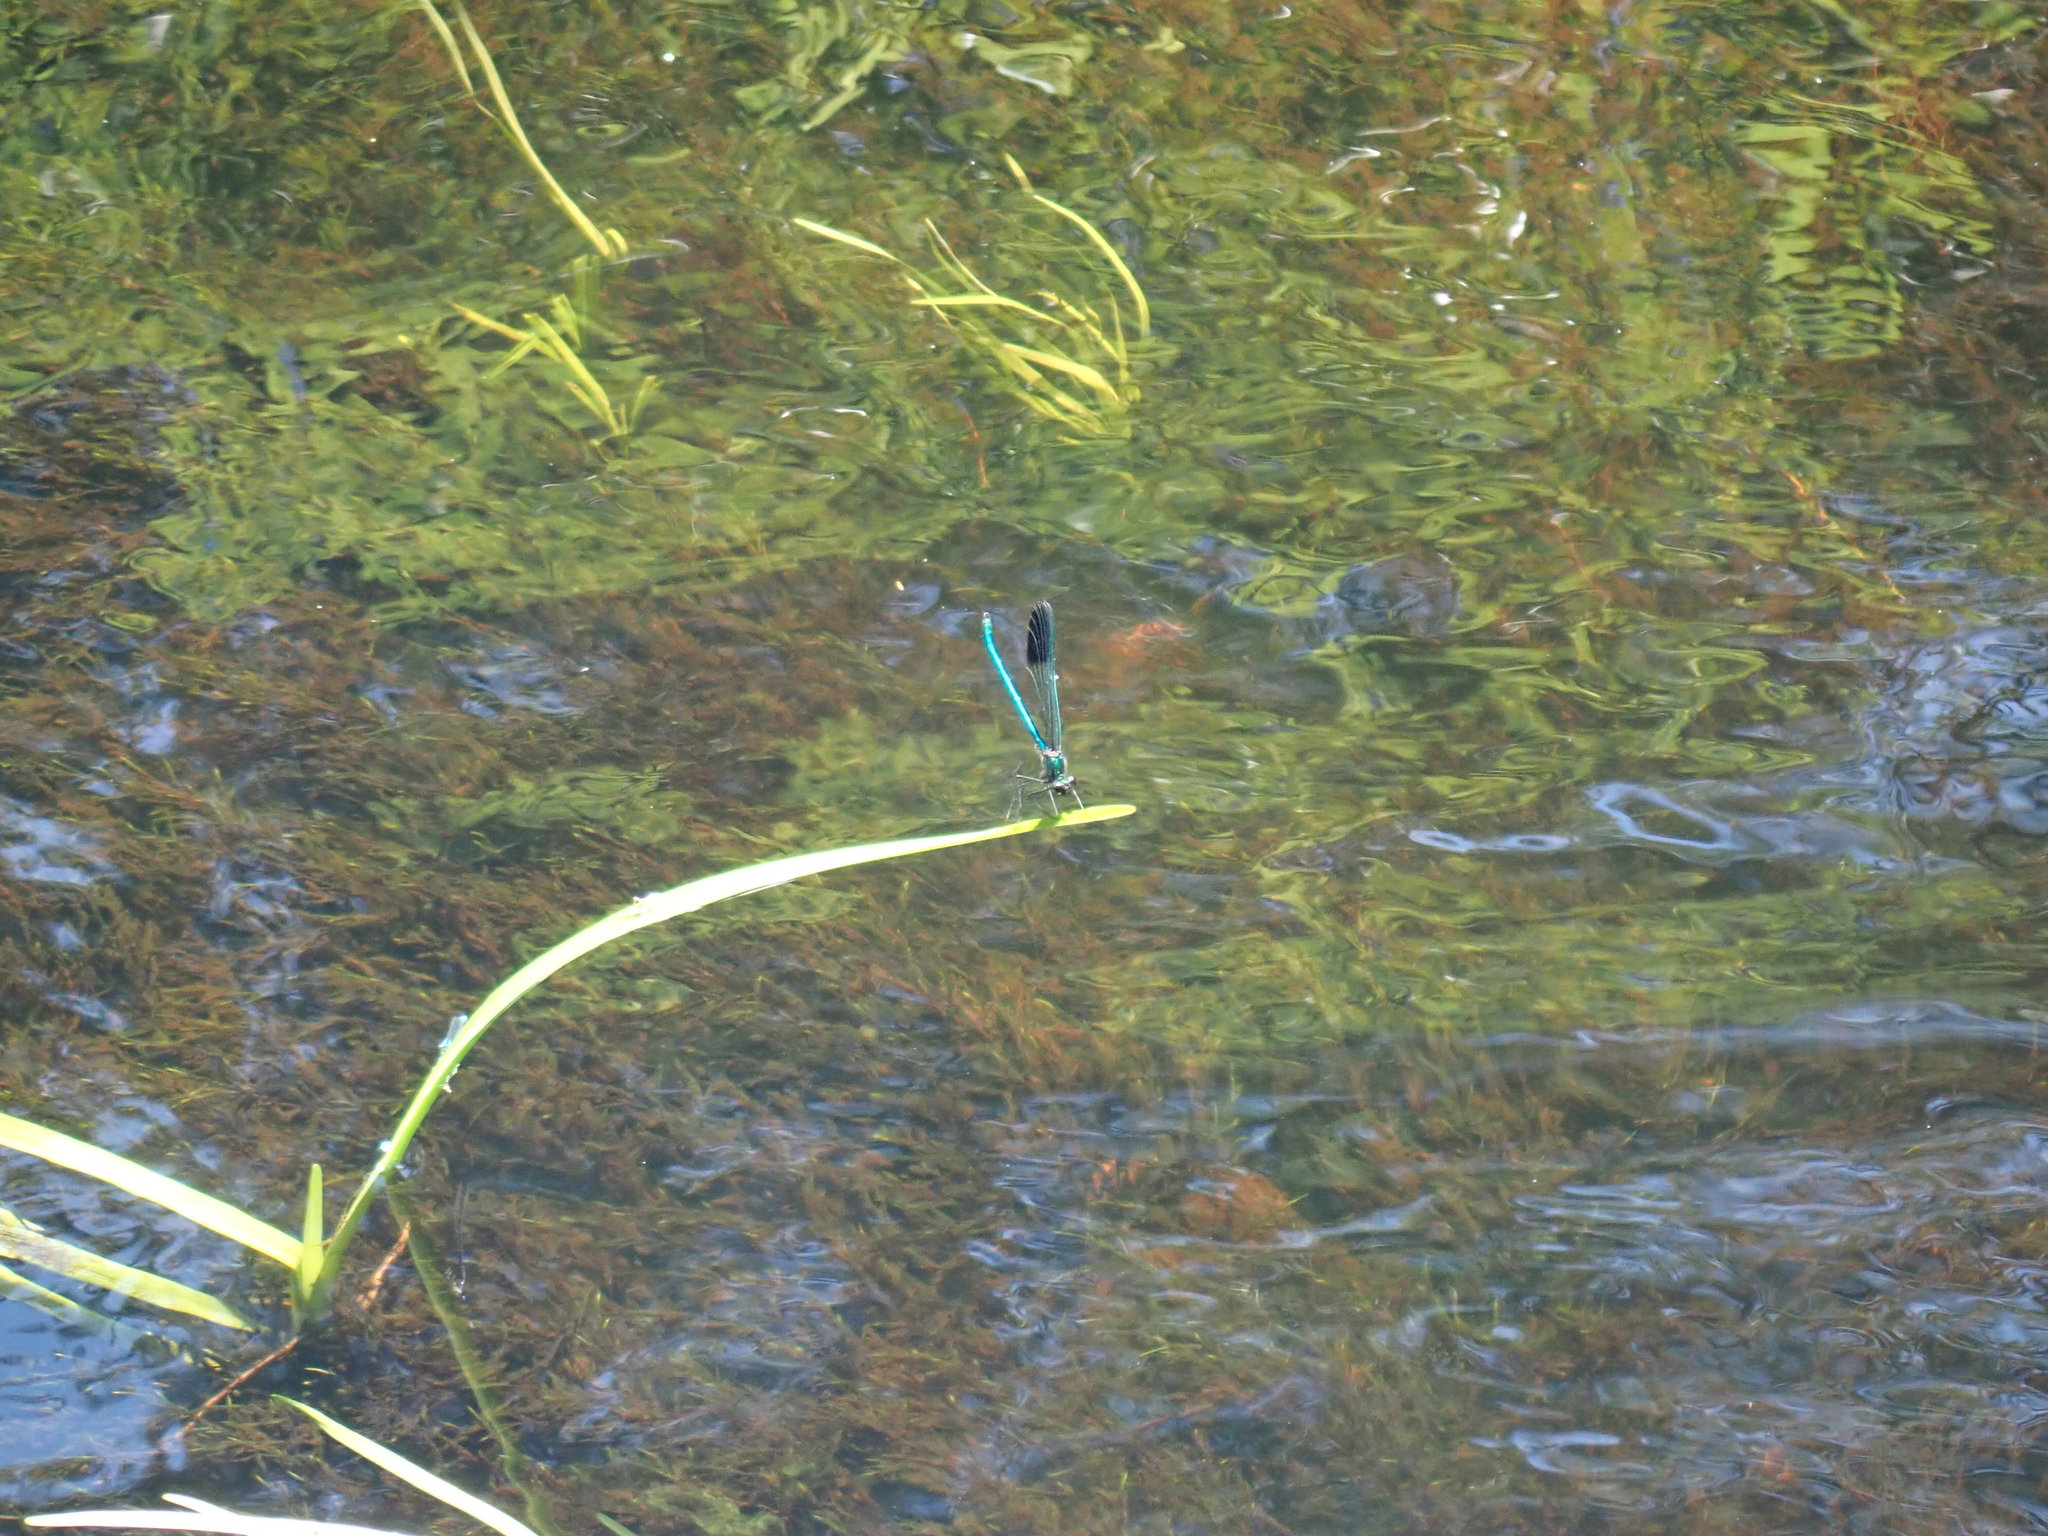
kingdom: Animalia
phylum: Arthropoda
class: Insecta
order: Odonata
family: Calopterygidae
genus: Calopteryx
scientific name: Calopteryx aequabilis
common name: River jewelwing
